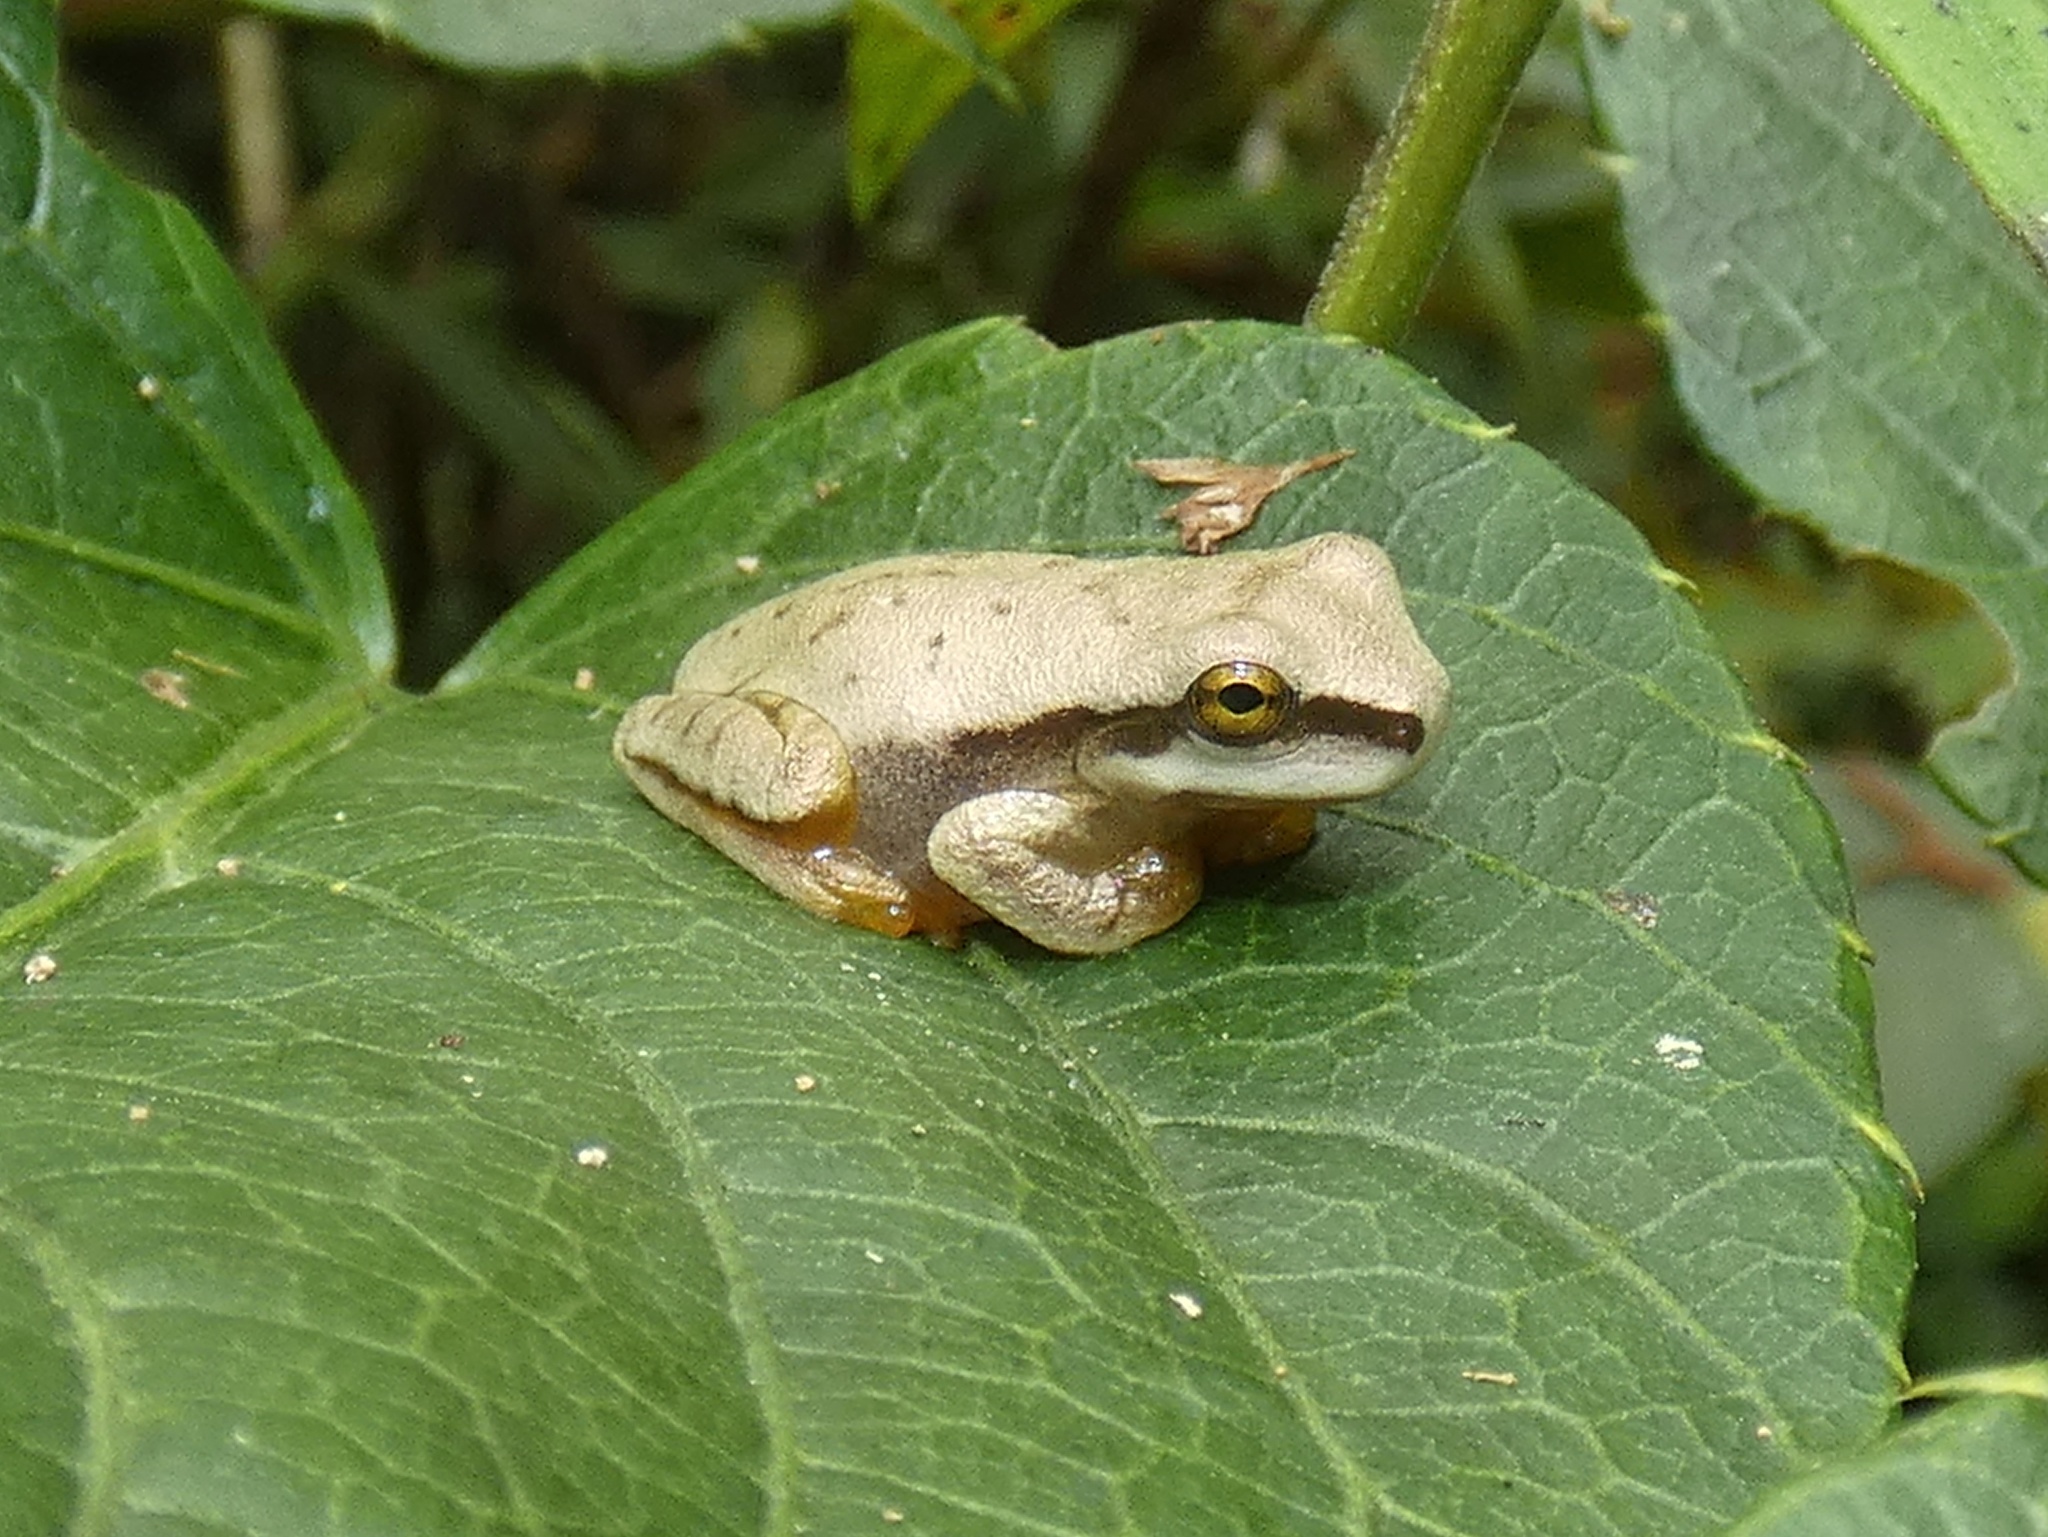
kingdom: Animalia
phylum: Chordata
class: Amphibia
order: Anura
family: Hylidae
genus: Smilisca
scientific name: Smilisca phaeota
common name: Central american smilisca
